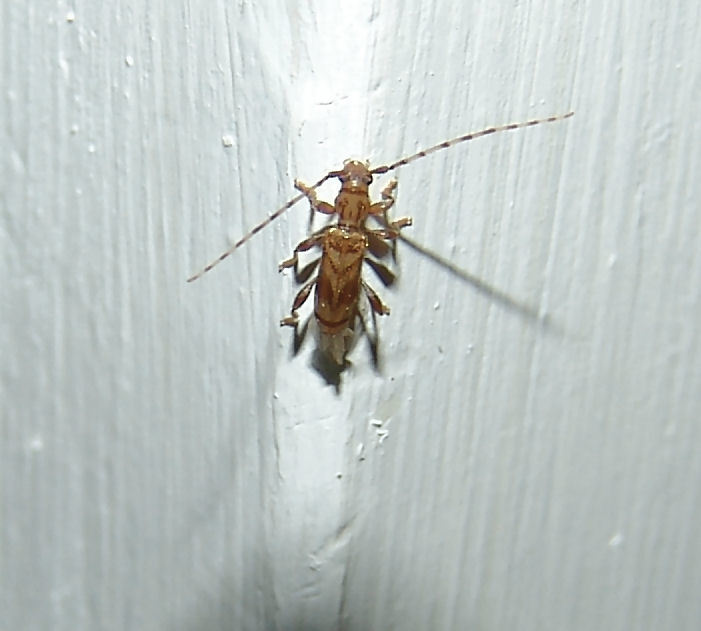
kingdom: Animalia
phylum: Arthropoda
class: Insecta
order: Coleoptera
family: Cerambycidae
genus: Obrium
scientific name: Obrium maculatum
